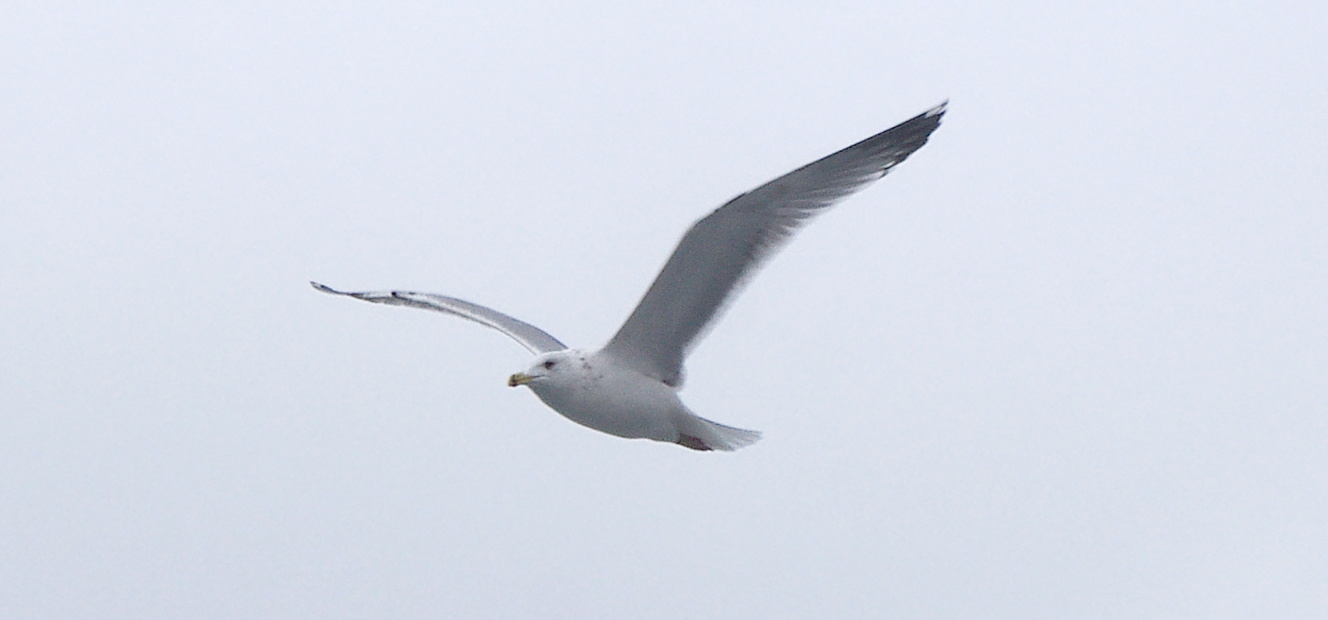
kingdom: Animalia
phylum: Chordata
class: Aves
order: Charadriiformes
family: Laridae
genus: Larus
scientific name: Larus argentatus
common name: Herring gull
